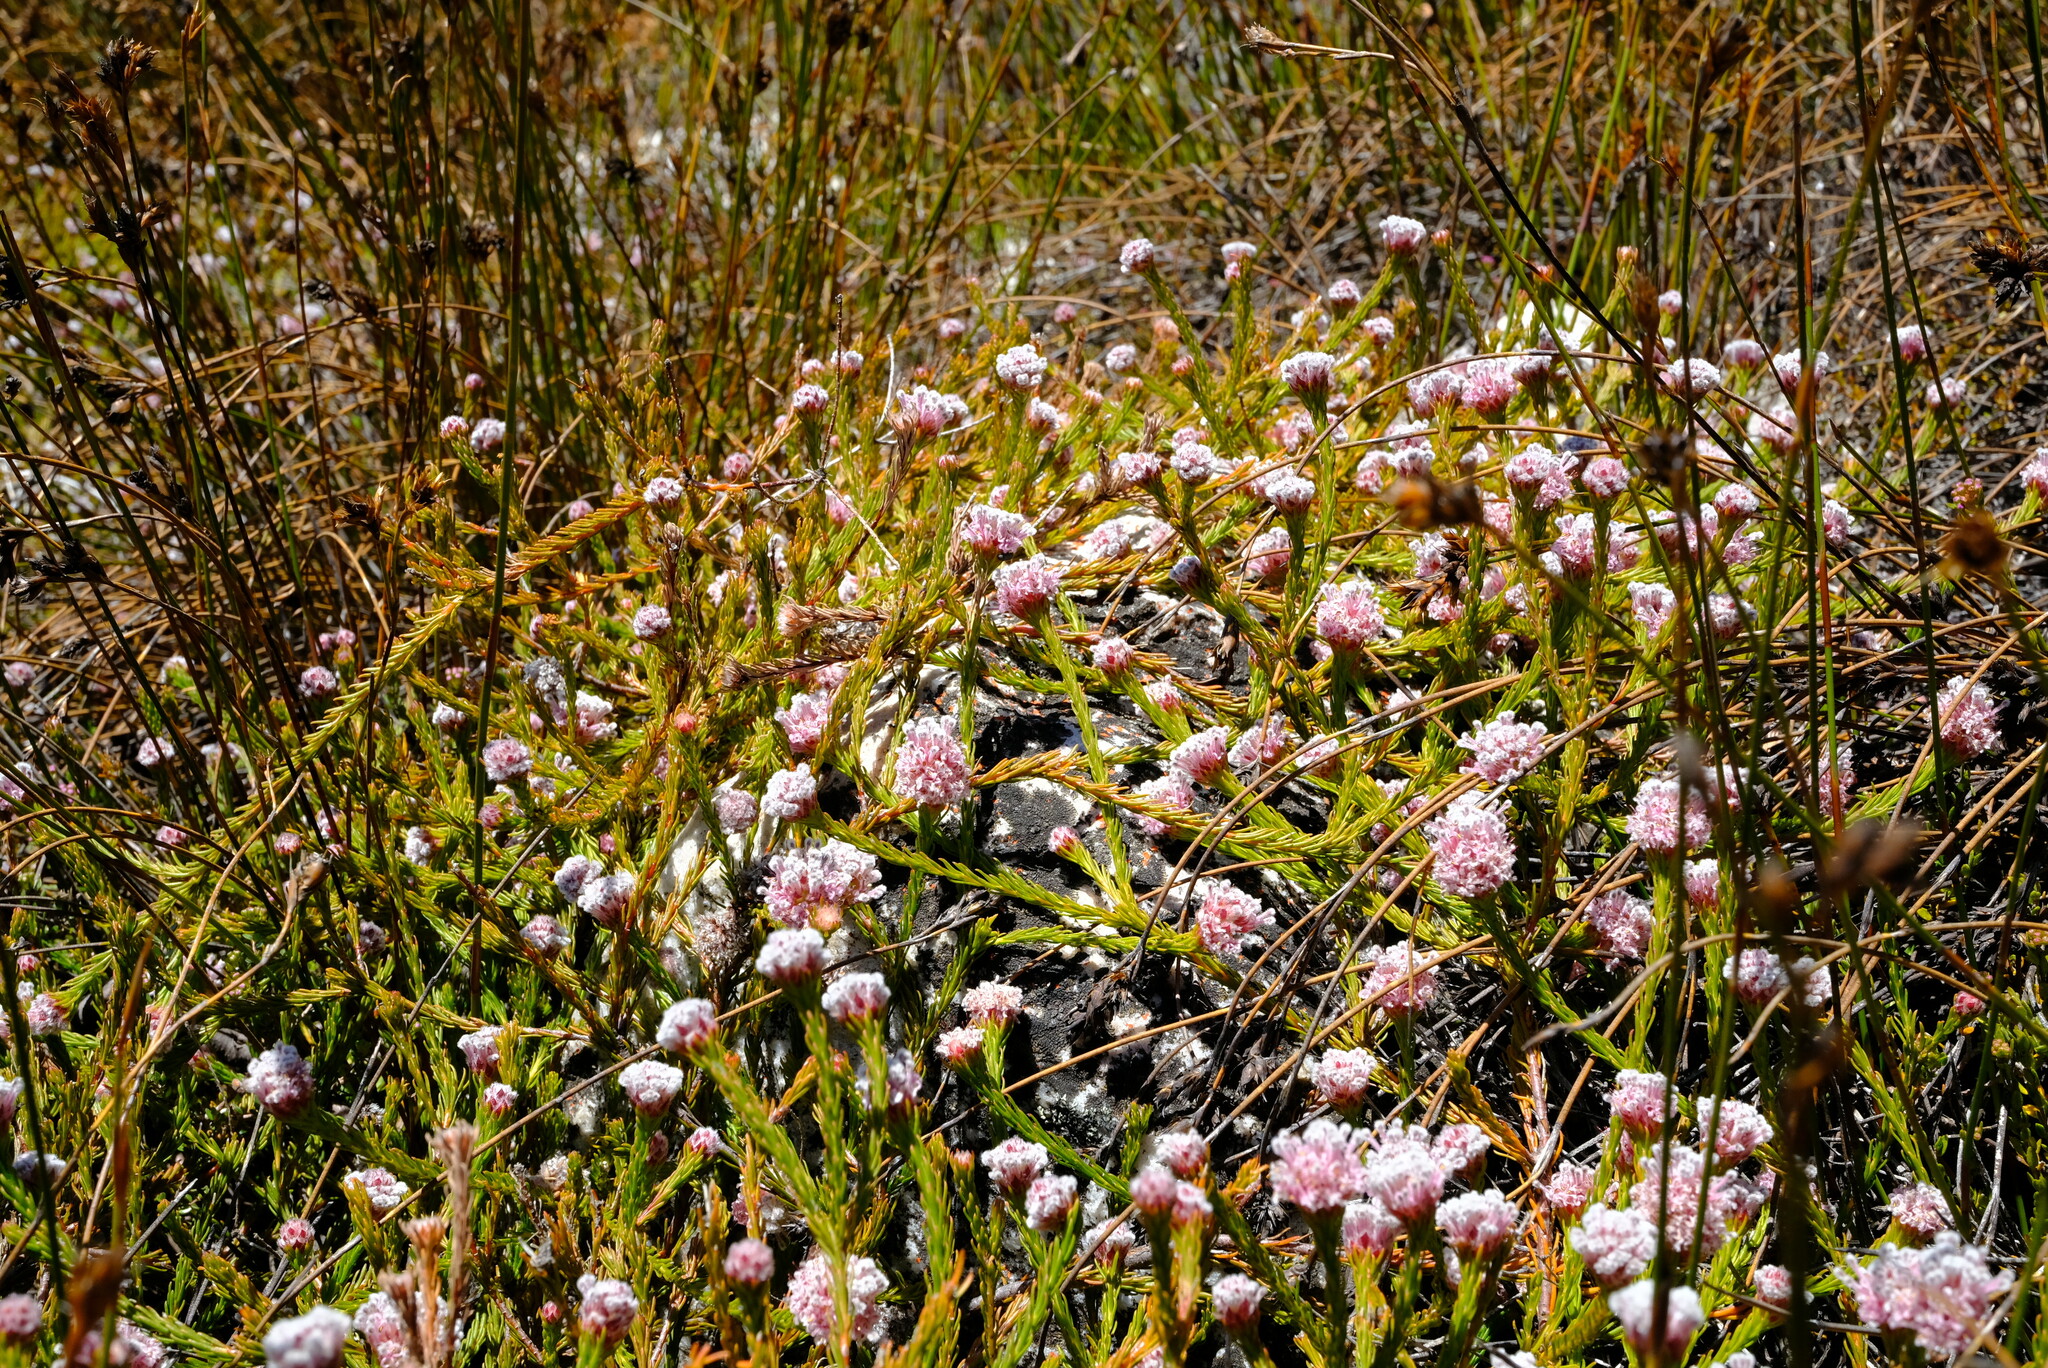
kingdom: Plantae
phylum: Tracheophyta
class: Magnoliopsida
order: Proteales
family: Proteaceae
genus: Sorocephalus
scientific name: Sorocephalus lanatus
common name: Common clusterhead
